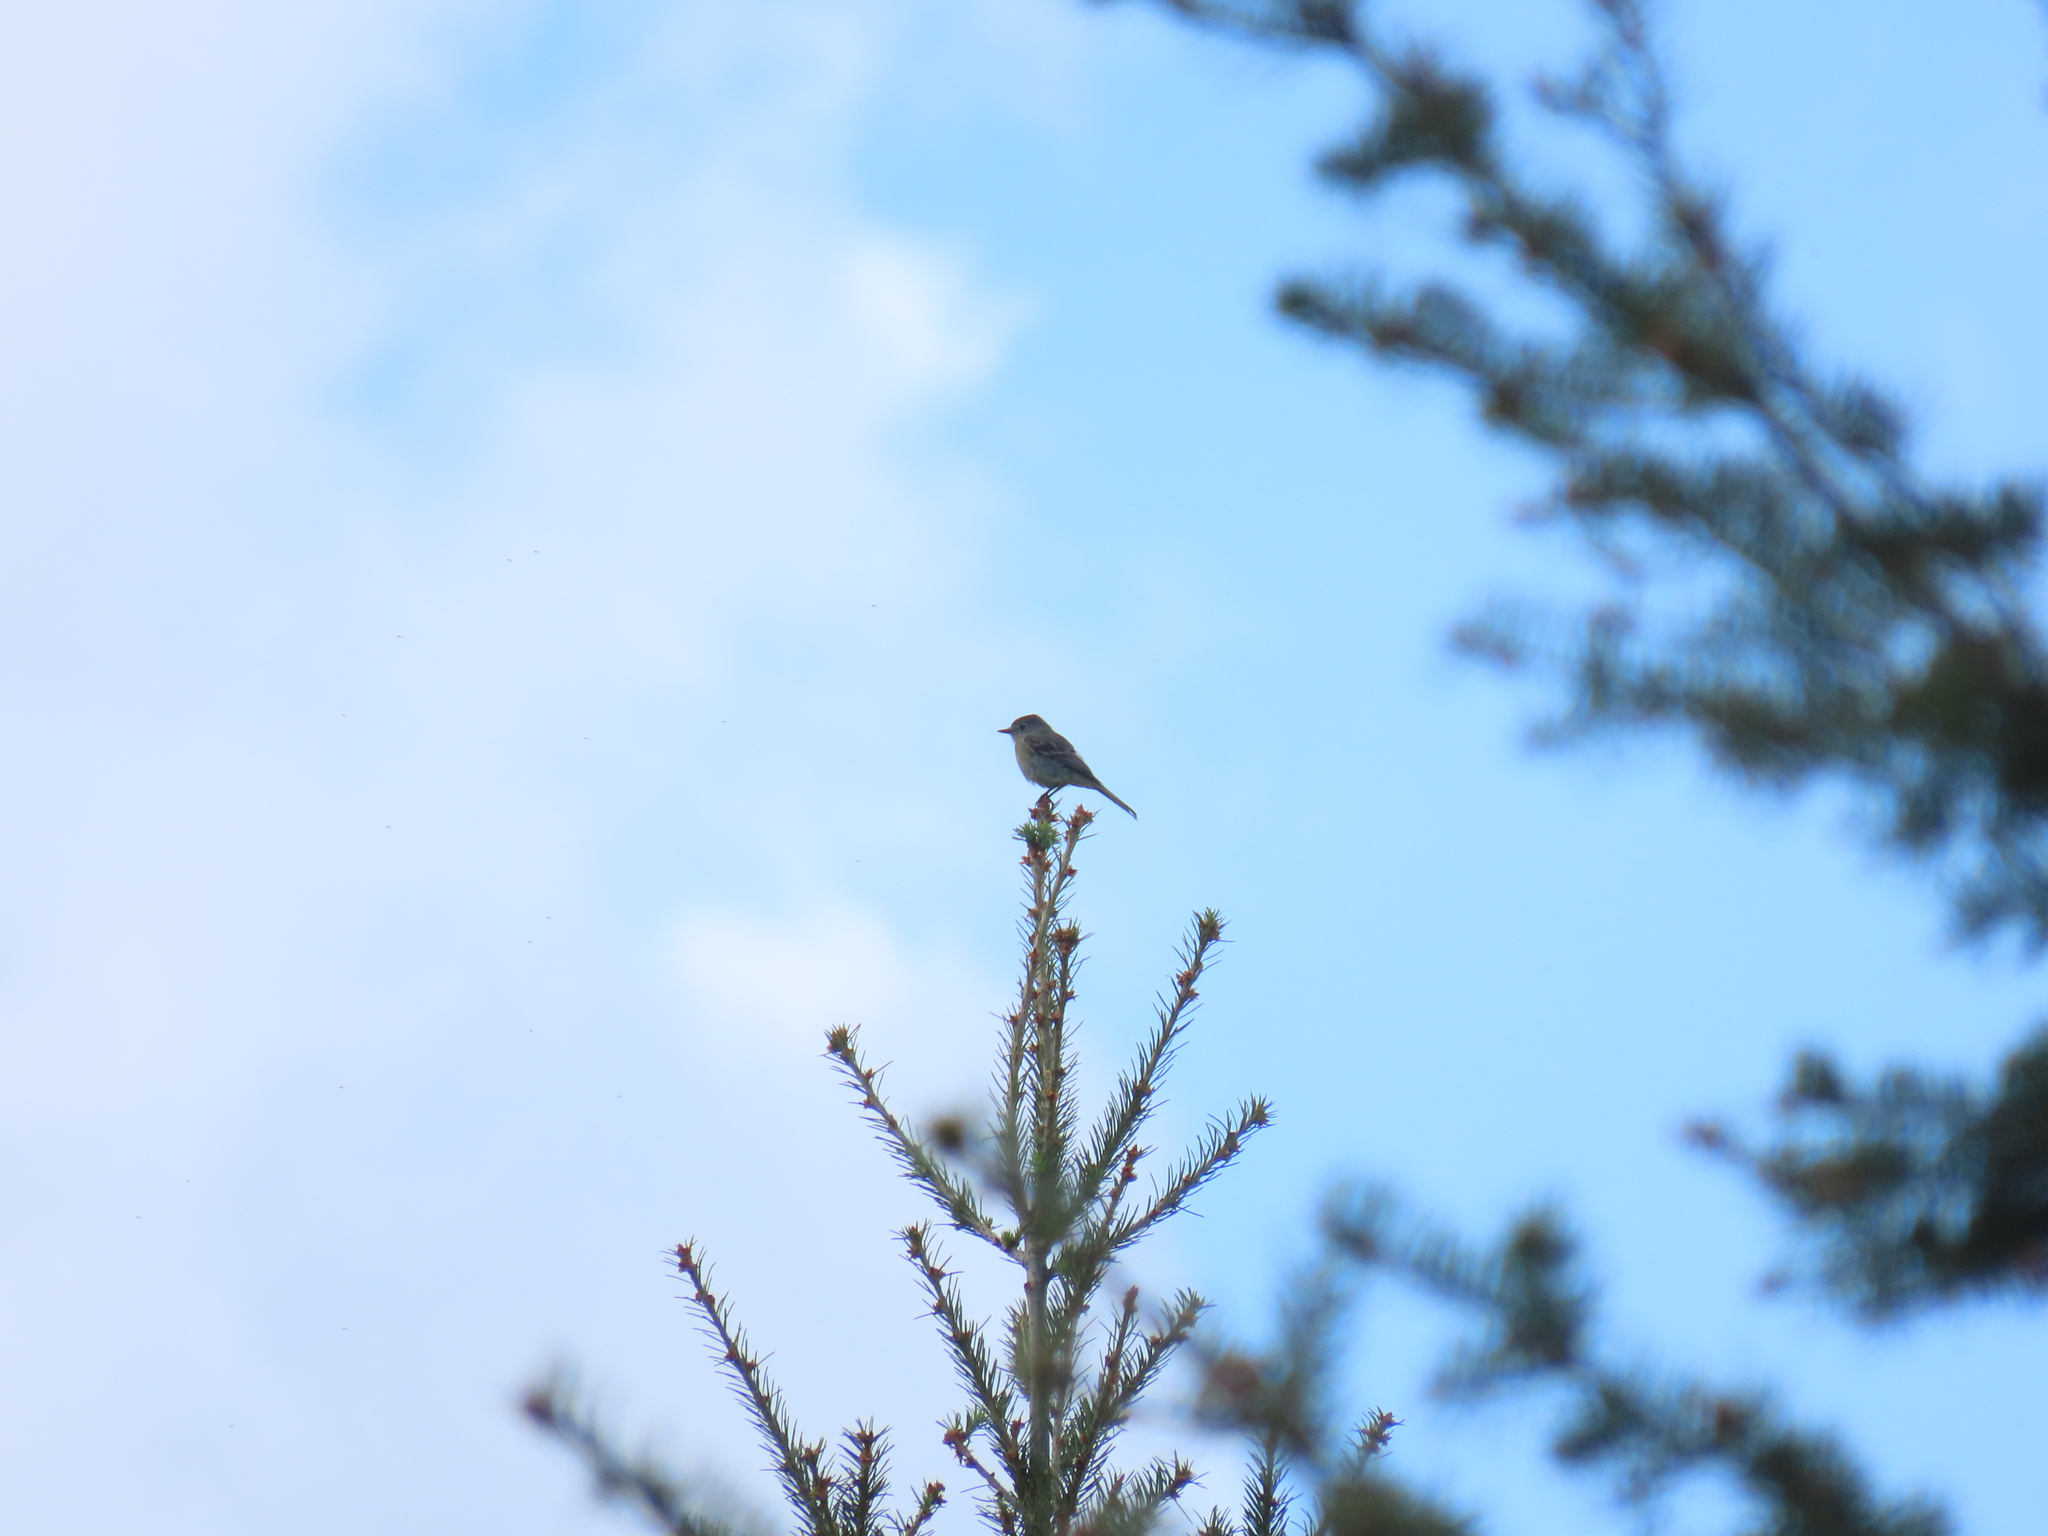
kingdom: Animalia
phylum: Chordata
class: Aves
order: Passeriformes
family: Tyrannidae
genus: Empidonax
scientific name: Empidonax minimus
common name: Least flycatcher
